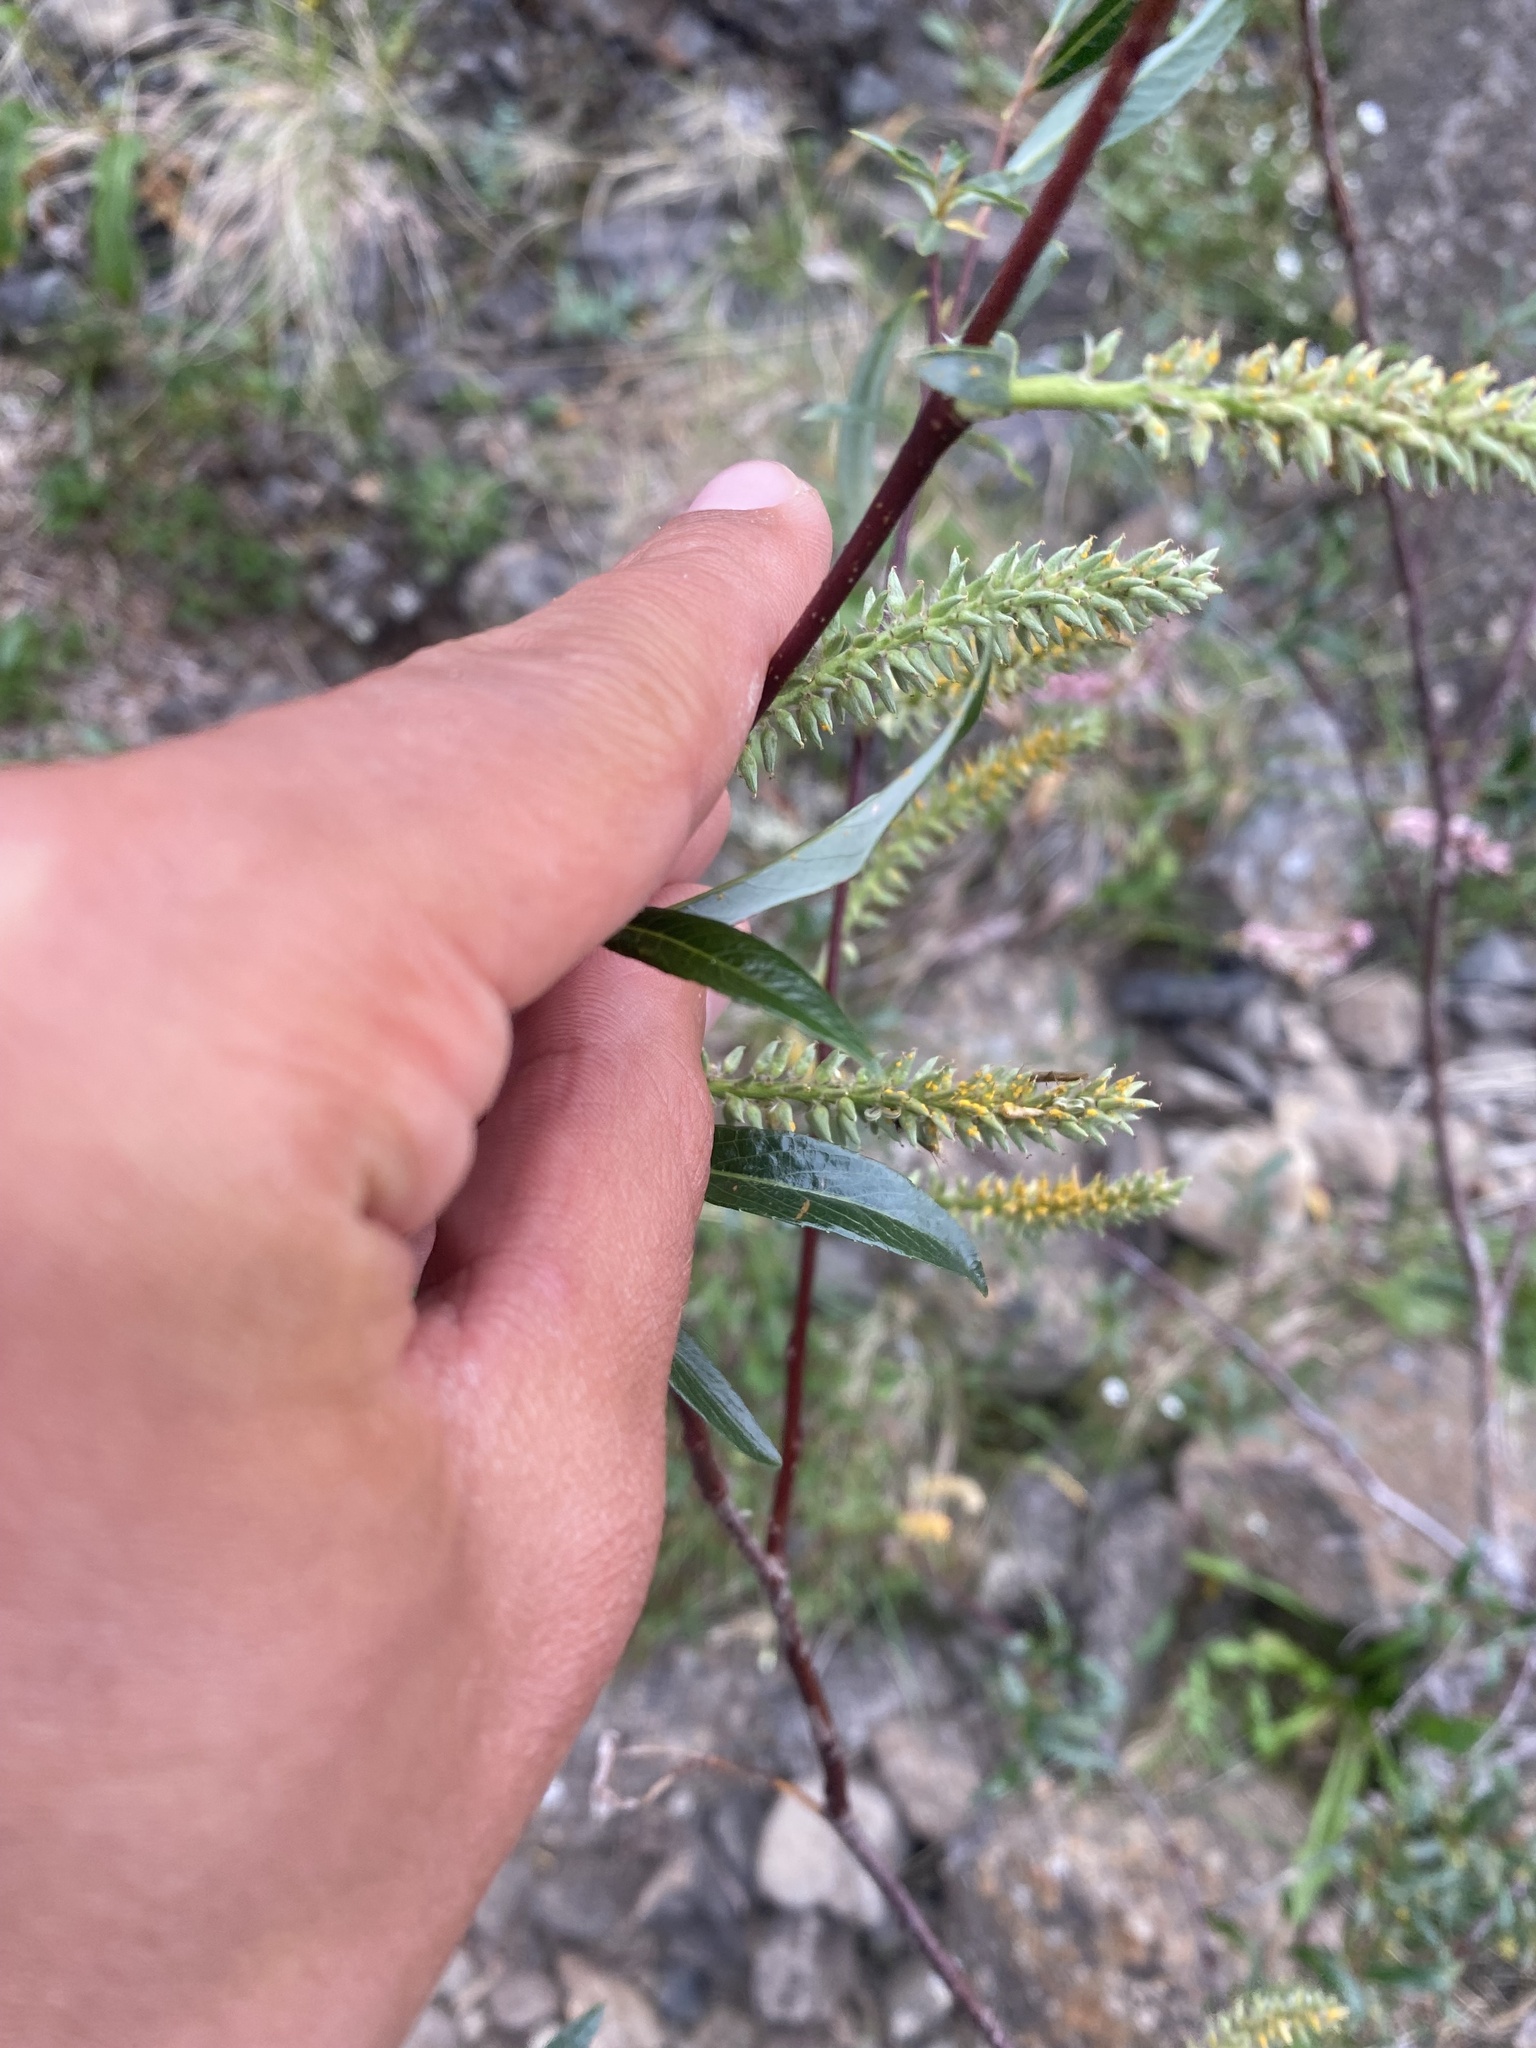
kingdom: Plantae
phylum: Tracheophyta
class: Magnoliopsida
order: Malpighiales
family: Salicaceae
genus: Salix
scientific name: Salix boganidensis
